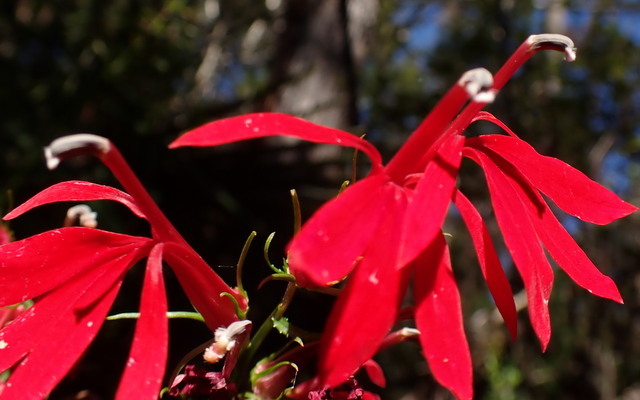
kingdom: Plantae
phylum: Tracheophyta
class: Magnoliopsida
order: Asterales
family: Campanulaceae
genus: Lobelia
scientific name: Lobelia cardinalis
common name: Cardinal flower
